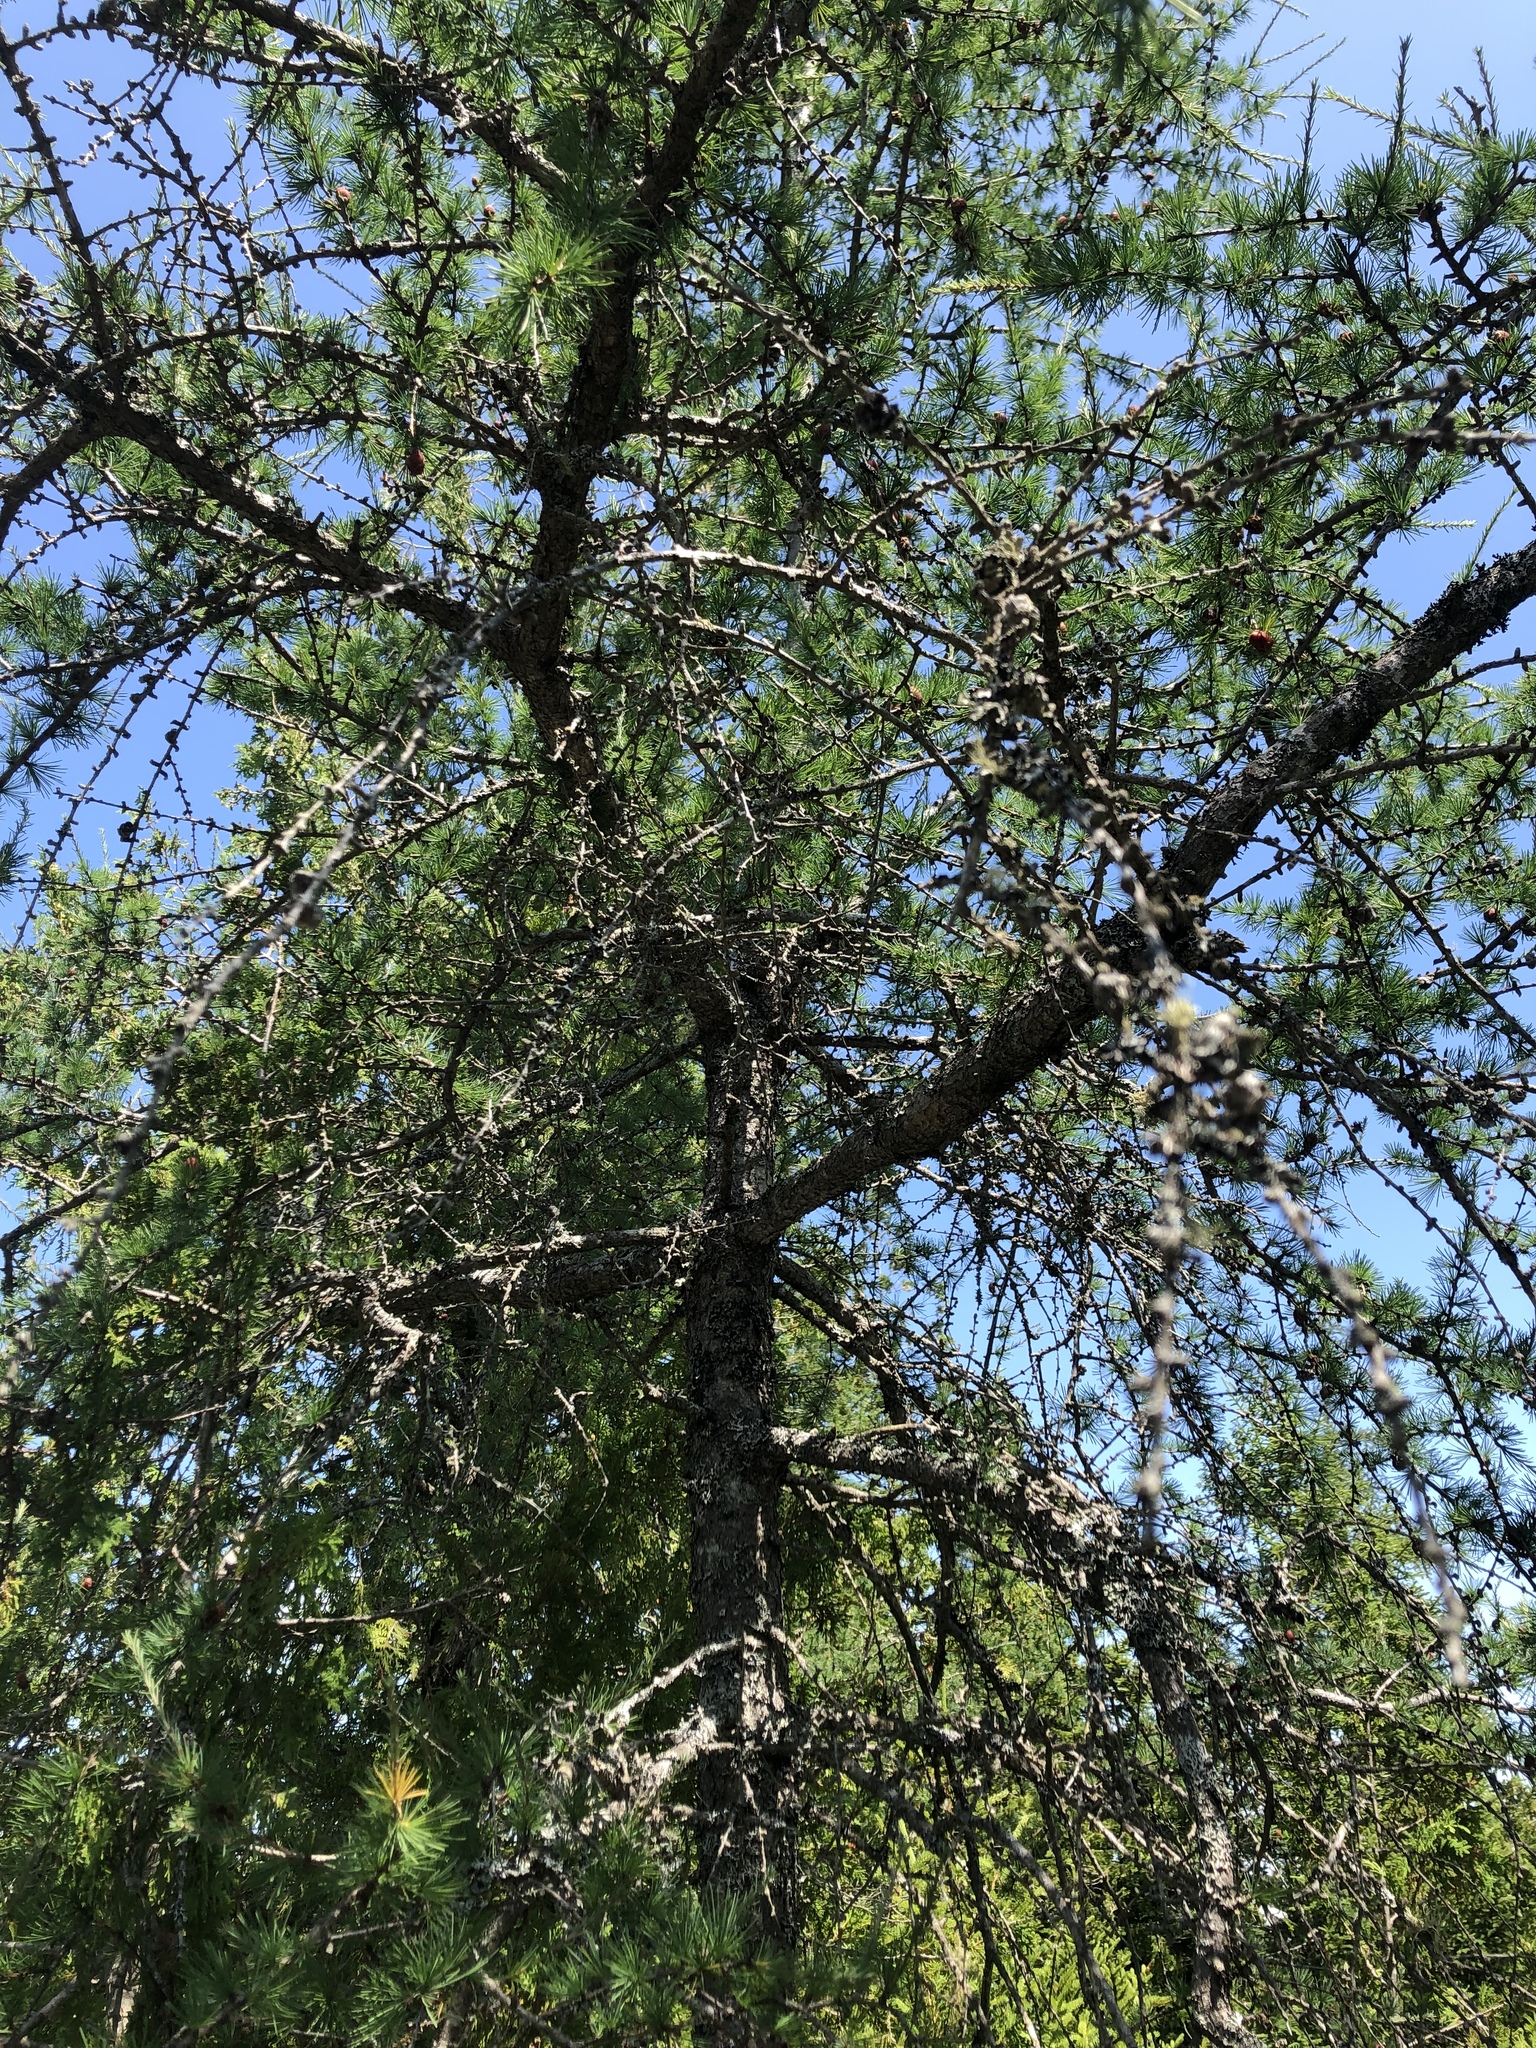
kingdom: Plantae
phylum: Tracheophyta
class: Pinopsida
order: Pinales
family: Pinaceae
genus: Larix
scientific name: Larix laricina
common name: American larch
